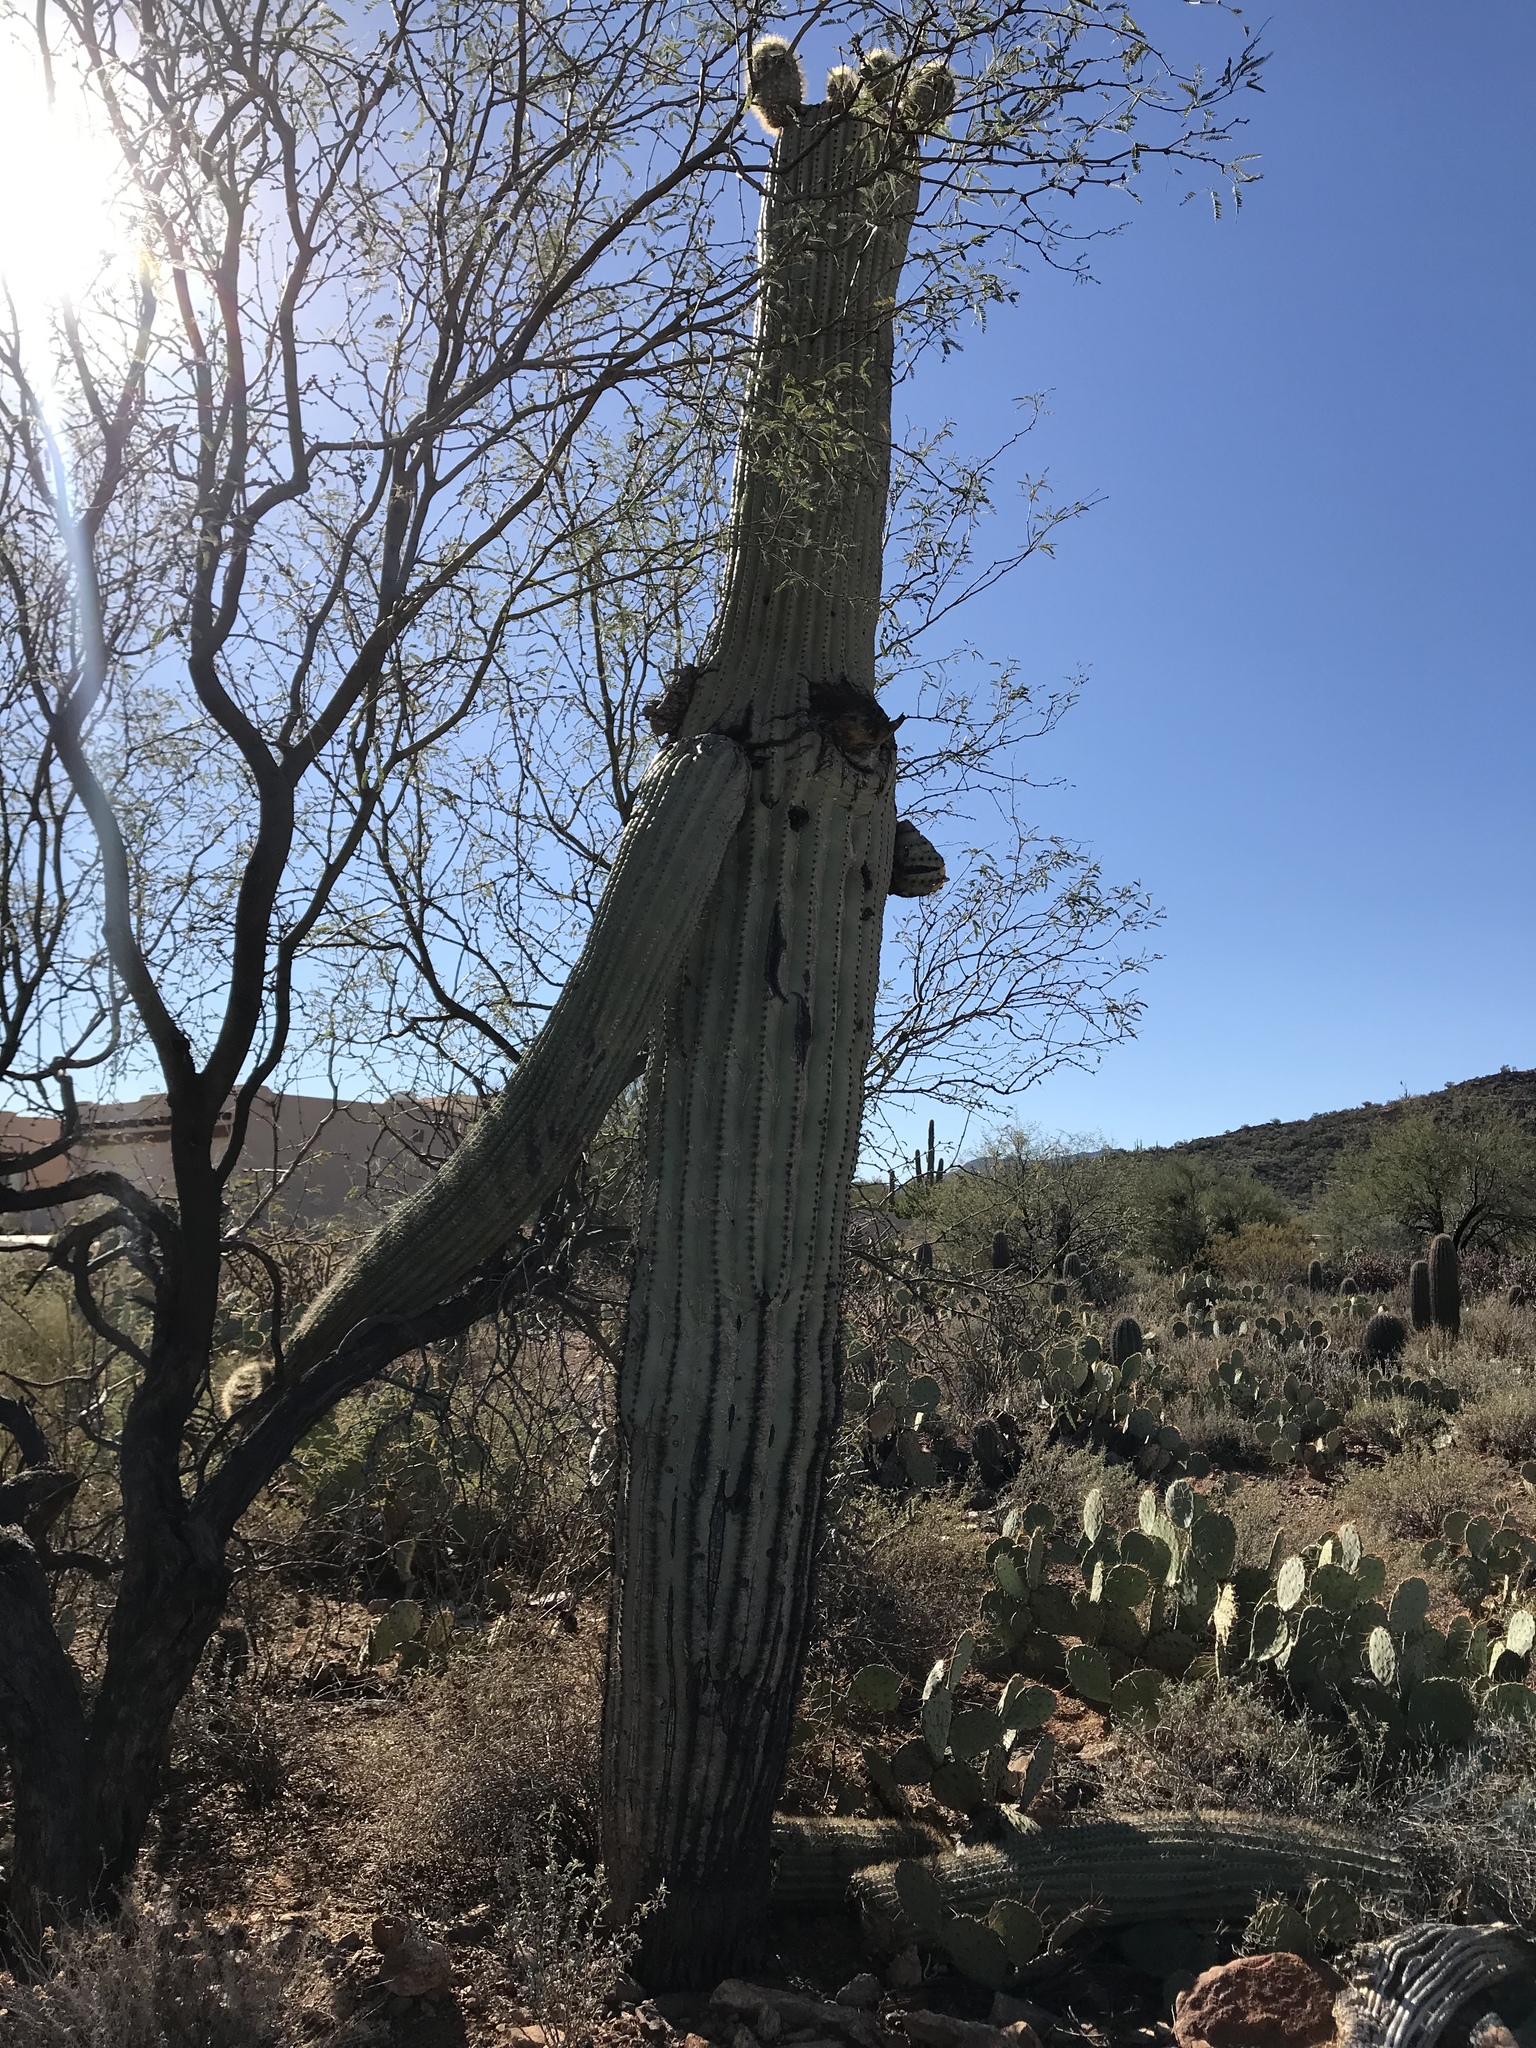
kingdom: Plantae
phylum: Tracheophyta
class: Magnoliopsida
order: Caryophyllales
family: Cactaceae
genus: Carnegiea
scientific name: Carnegiea gigantea
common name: Saguaro
